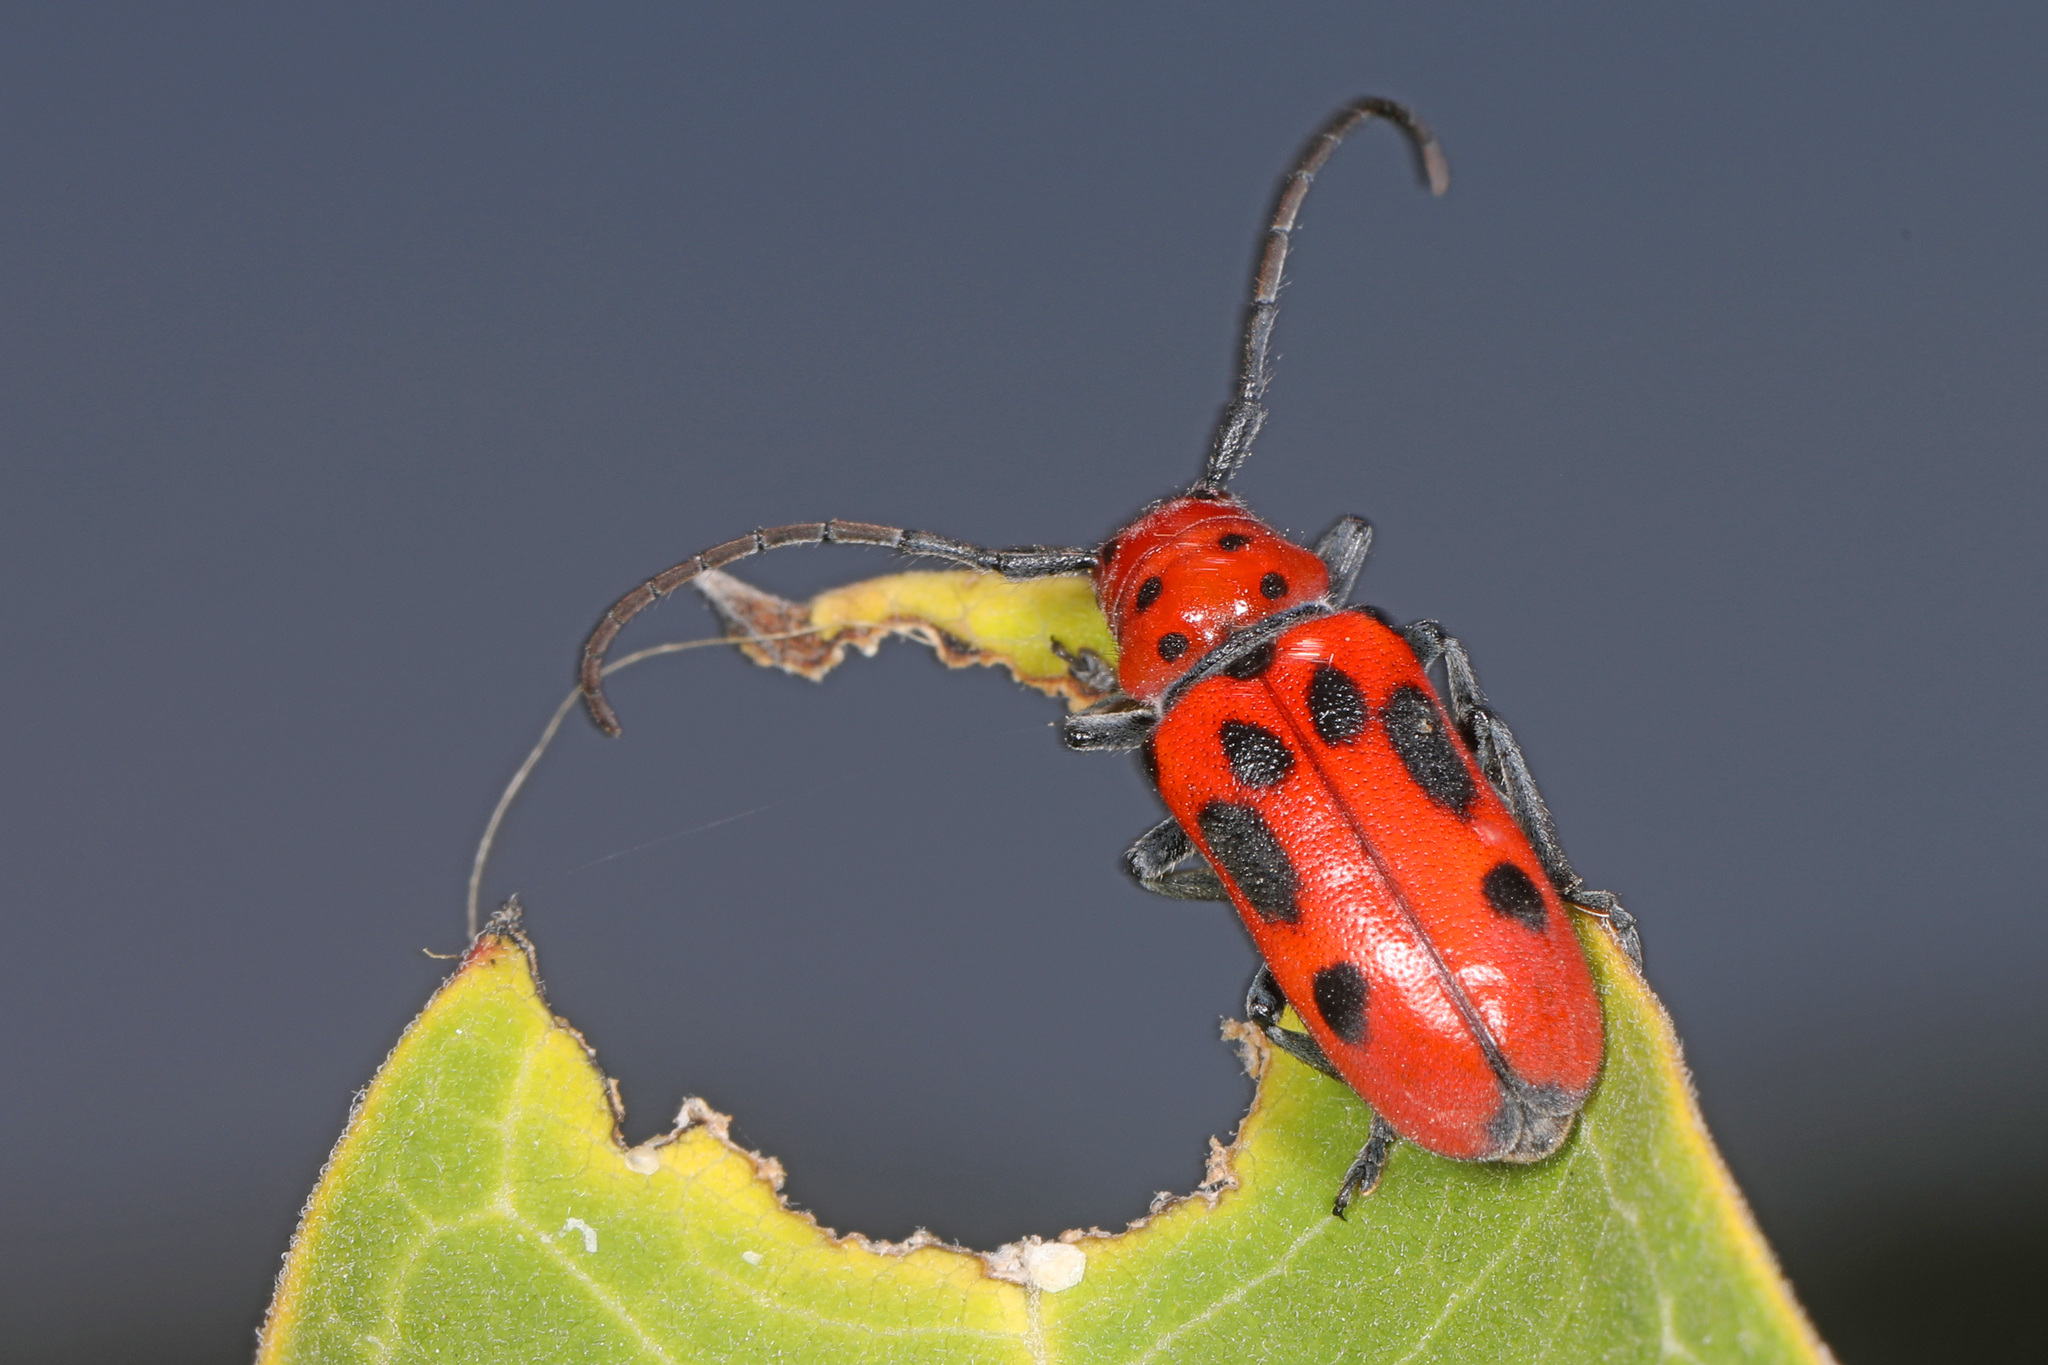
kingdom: Animalia
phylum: Arthropoda
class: Insecta
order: Coleoptera
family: Cerambycidae
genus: Tetraopes
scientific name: Tetraopes tetrophthalmus
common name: Red milkweed beetle
